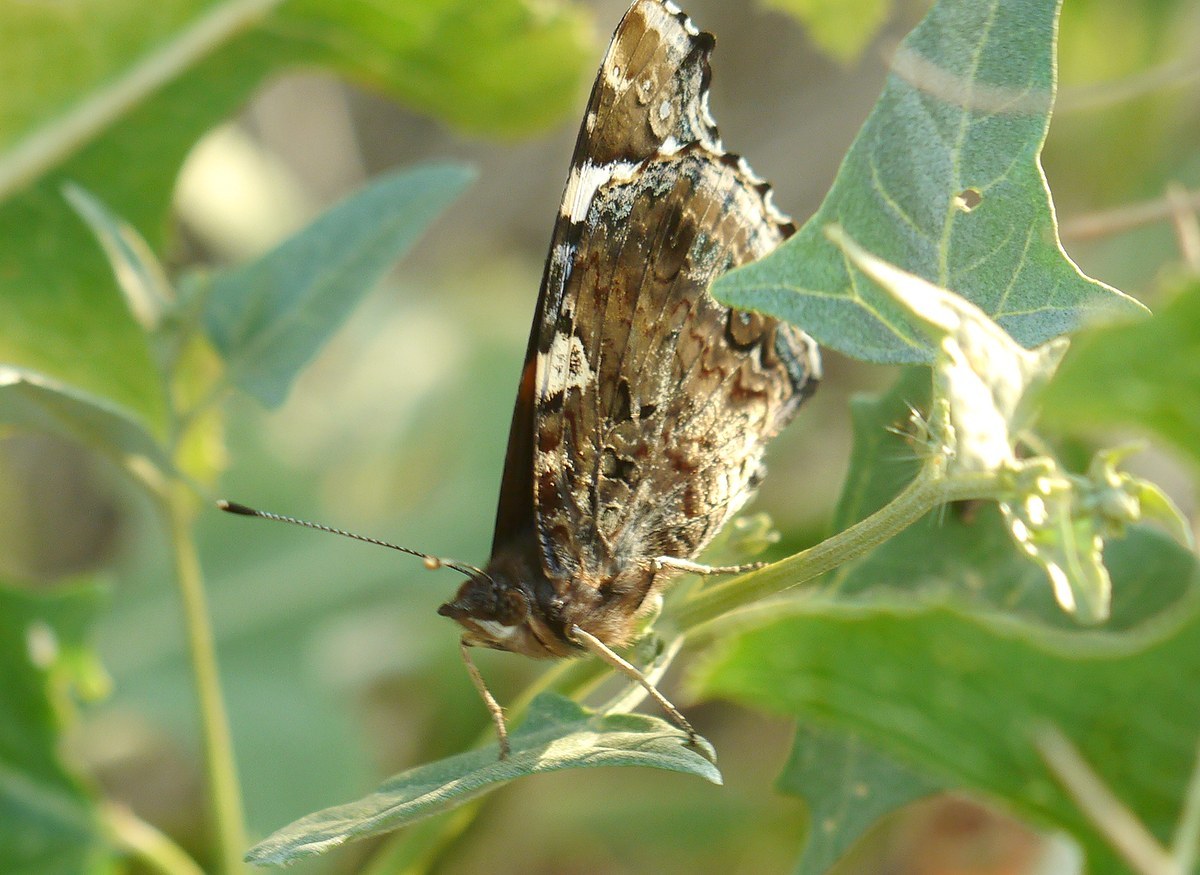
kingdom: Animalia
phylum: Arthropoda
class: Insecta
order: Lepidoptera
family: Nymphalidae
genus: Vanessa
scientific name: Vanessa atalanta
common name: Red admiral
